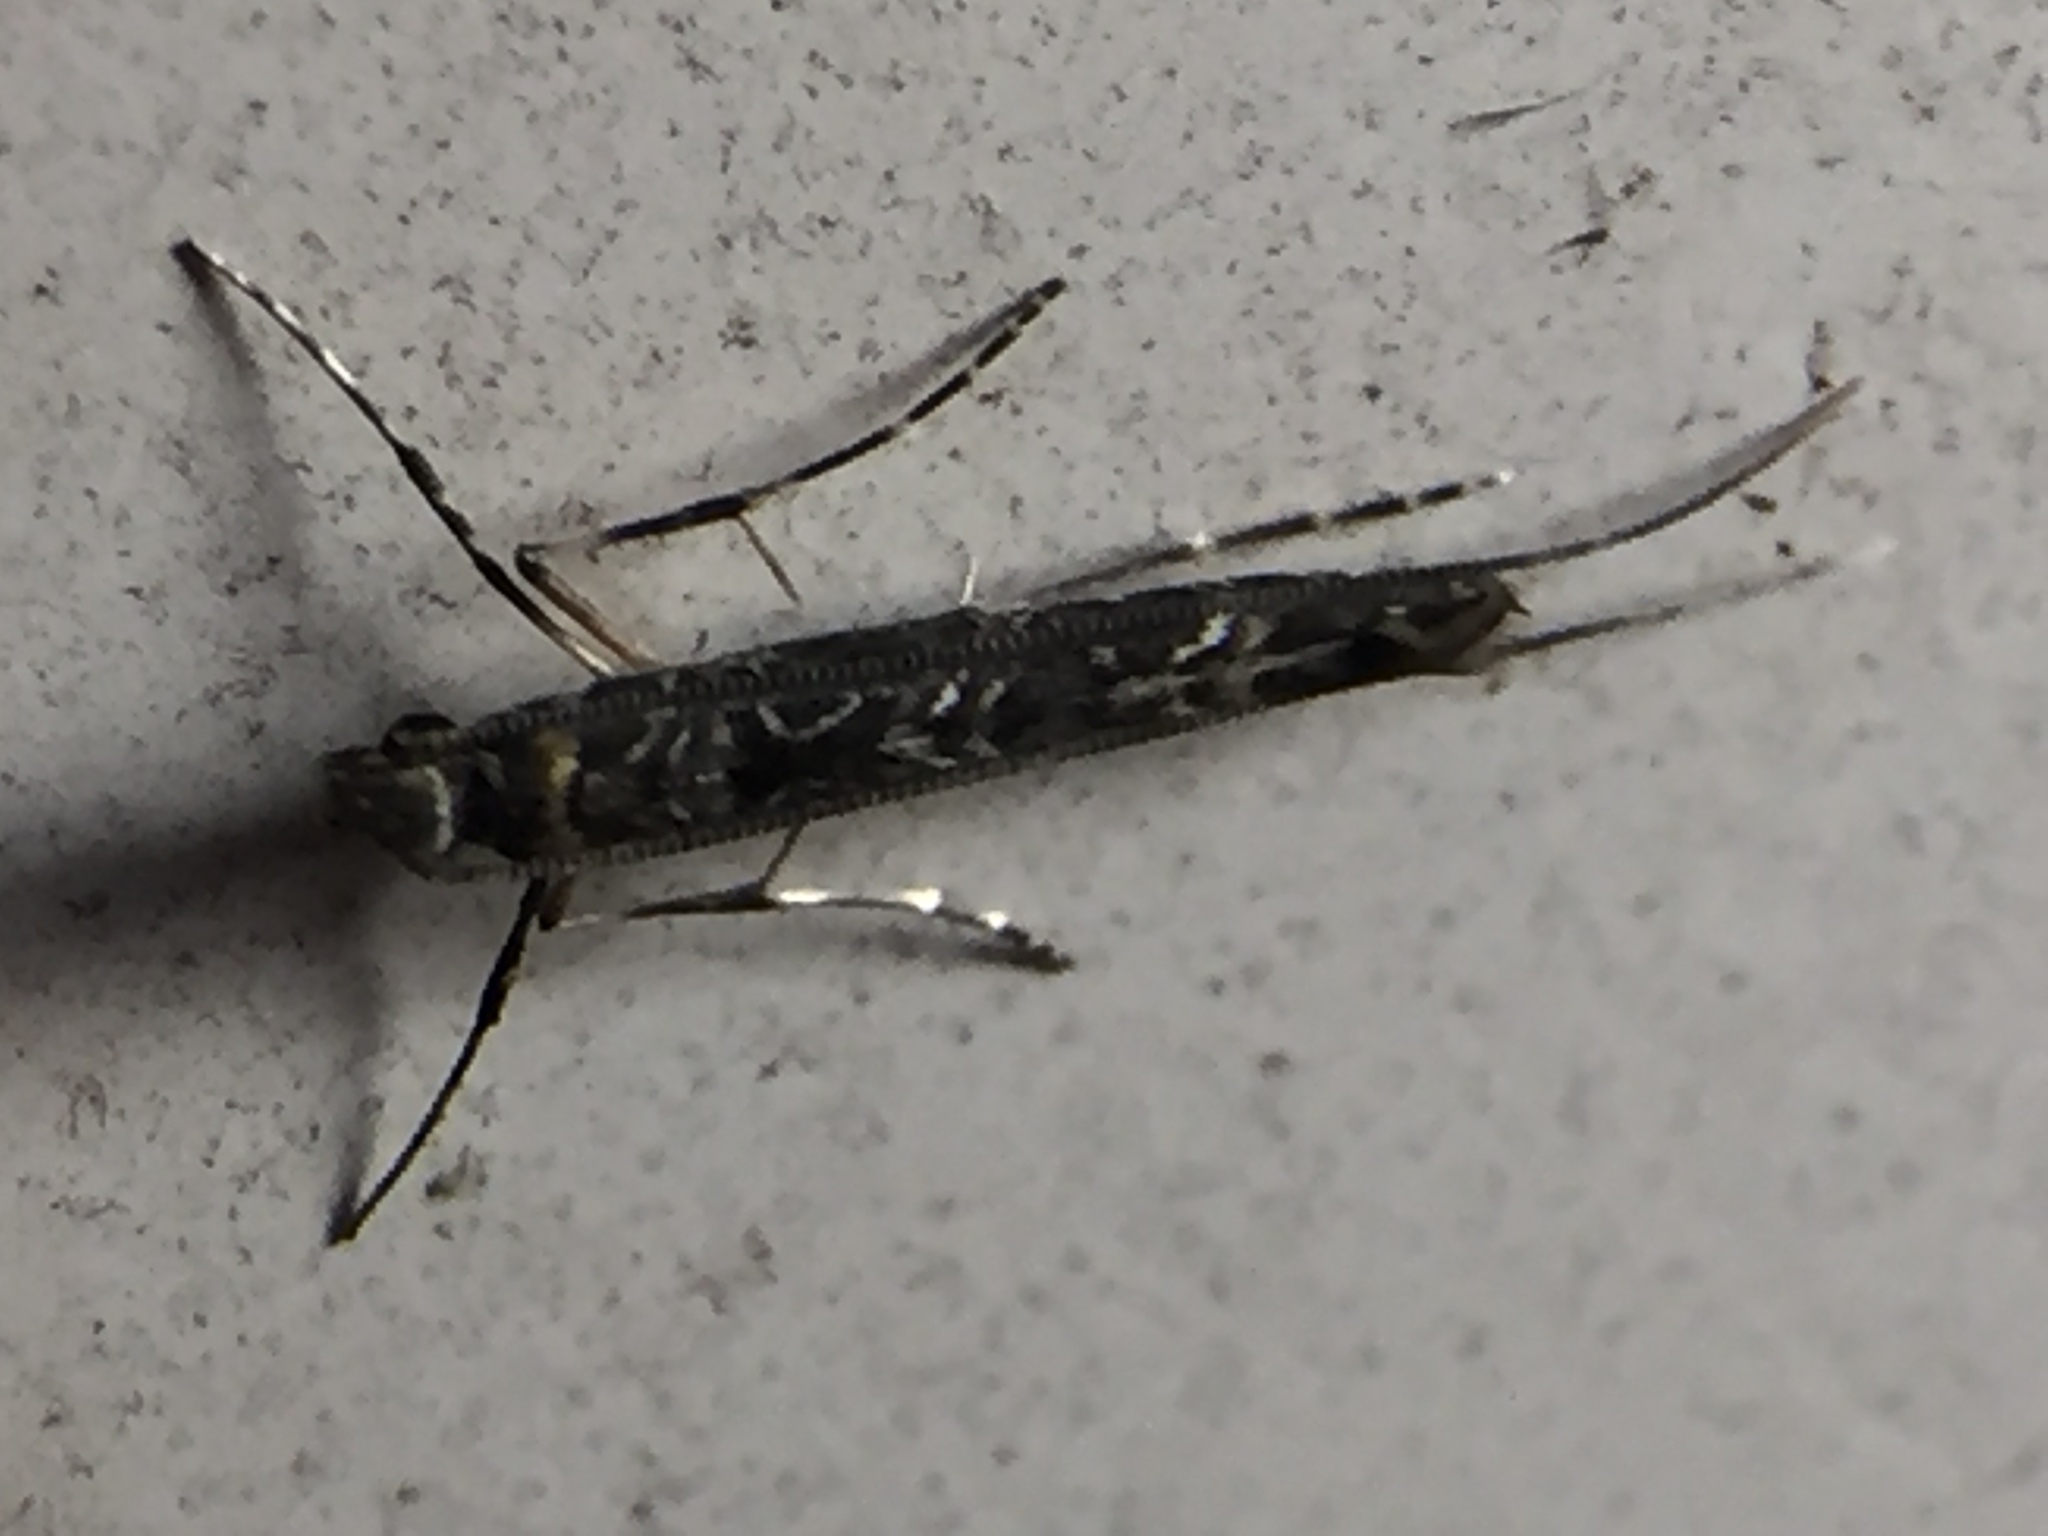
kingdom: Animalia
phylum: Arthropoda
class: Insecta
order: Lepidoptera
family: Gracillariidae
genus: Conopomorpha
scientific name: Conopomorpha cyanospila
